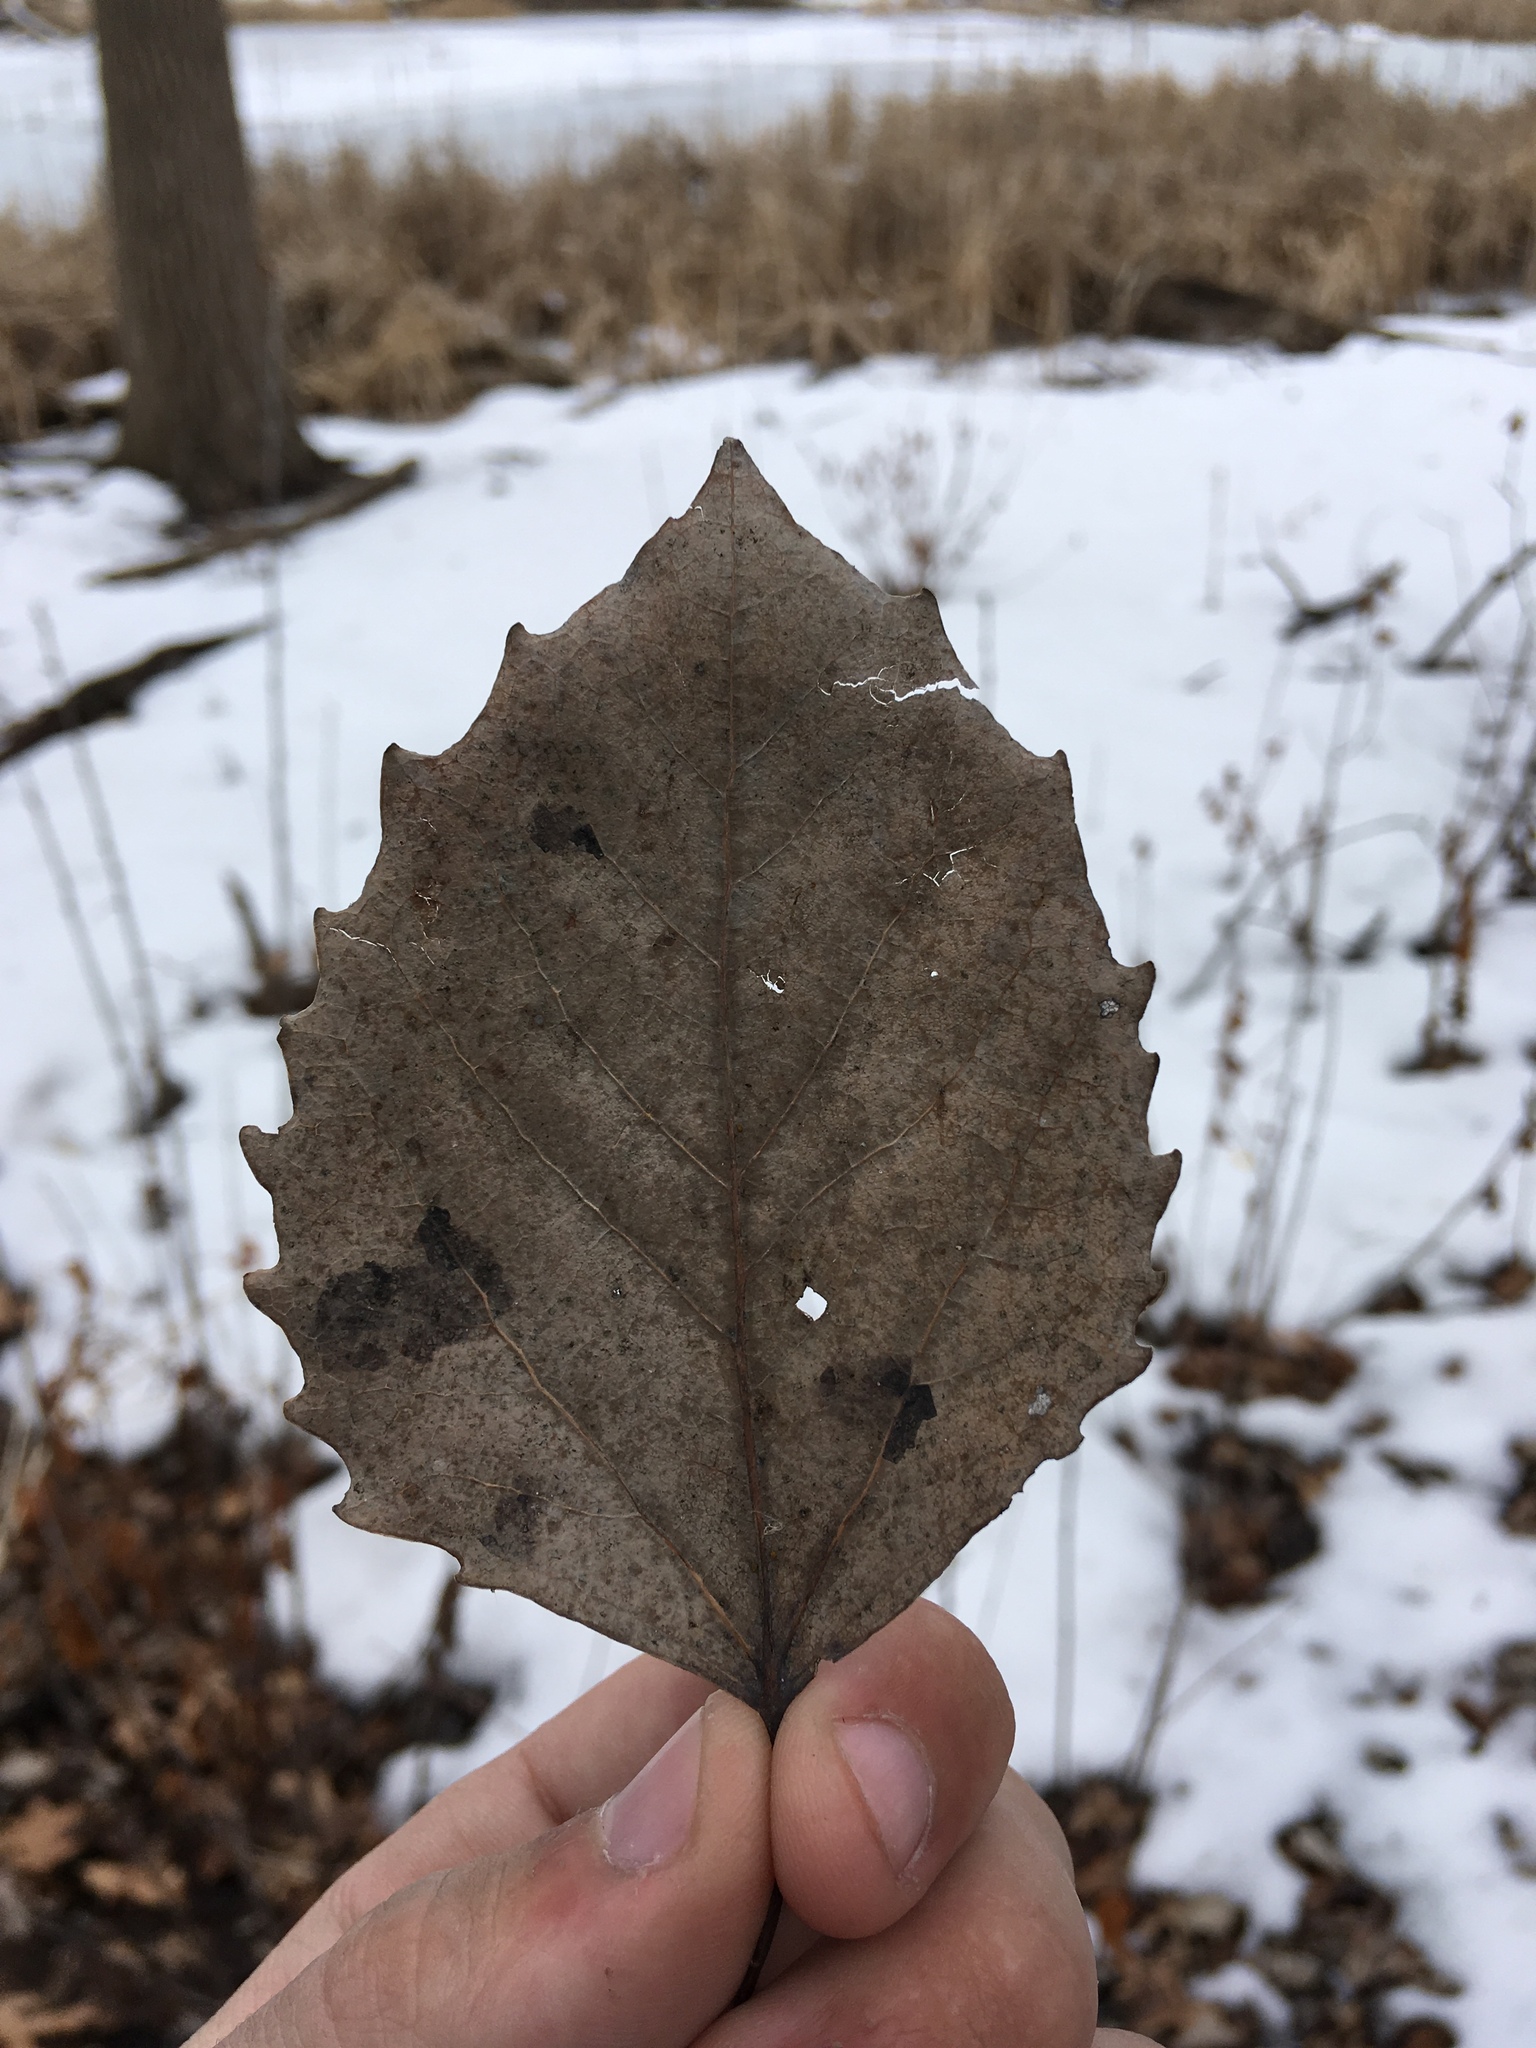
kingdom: Plantae
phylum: Tracheophyta
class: Magnoliopsida
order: Malpighiales
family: Salicaceae
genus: Populus
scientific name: Populus grandidentata
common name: Bigtooth aspen
